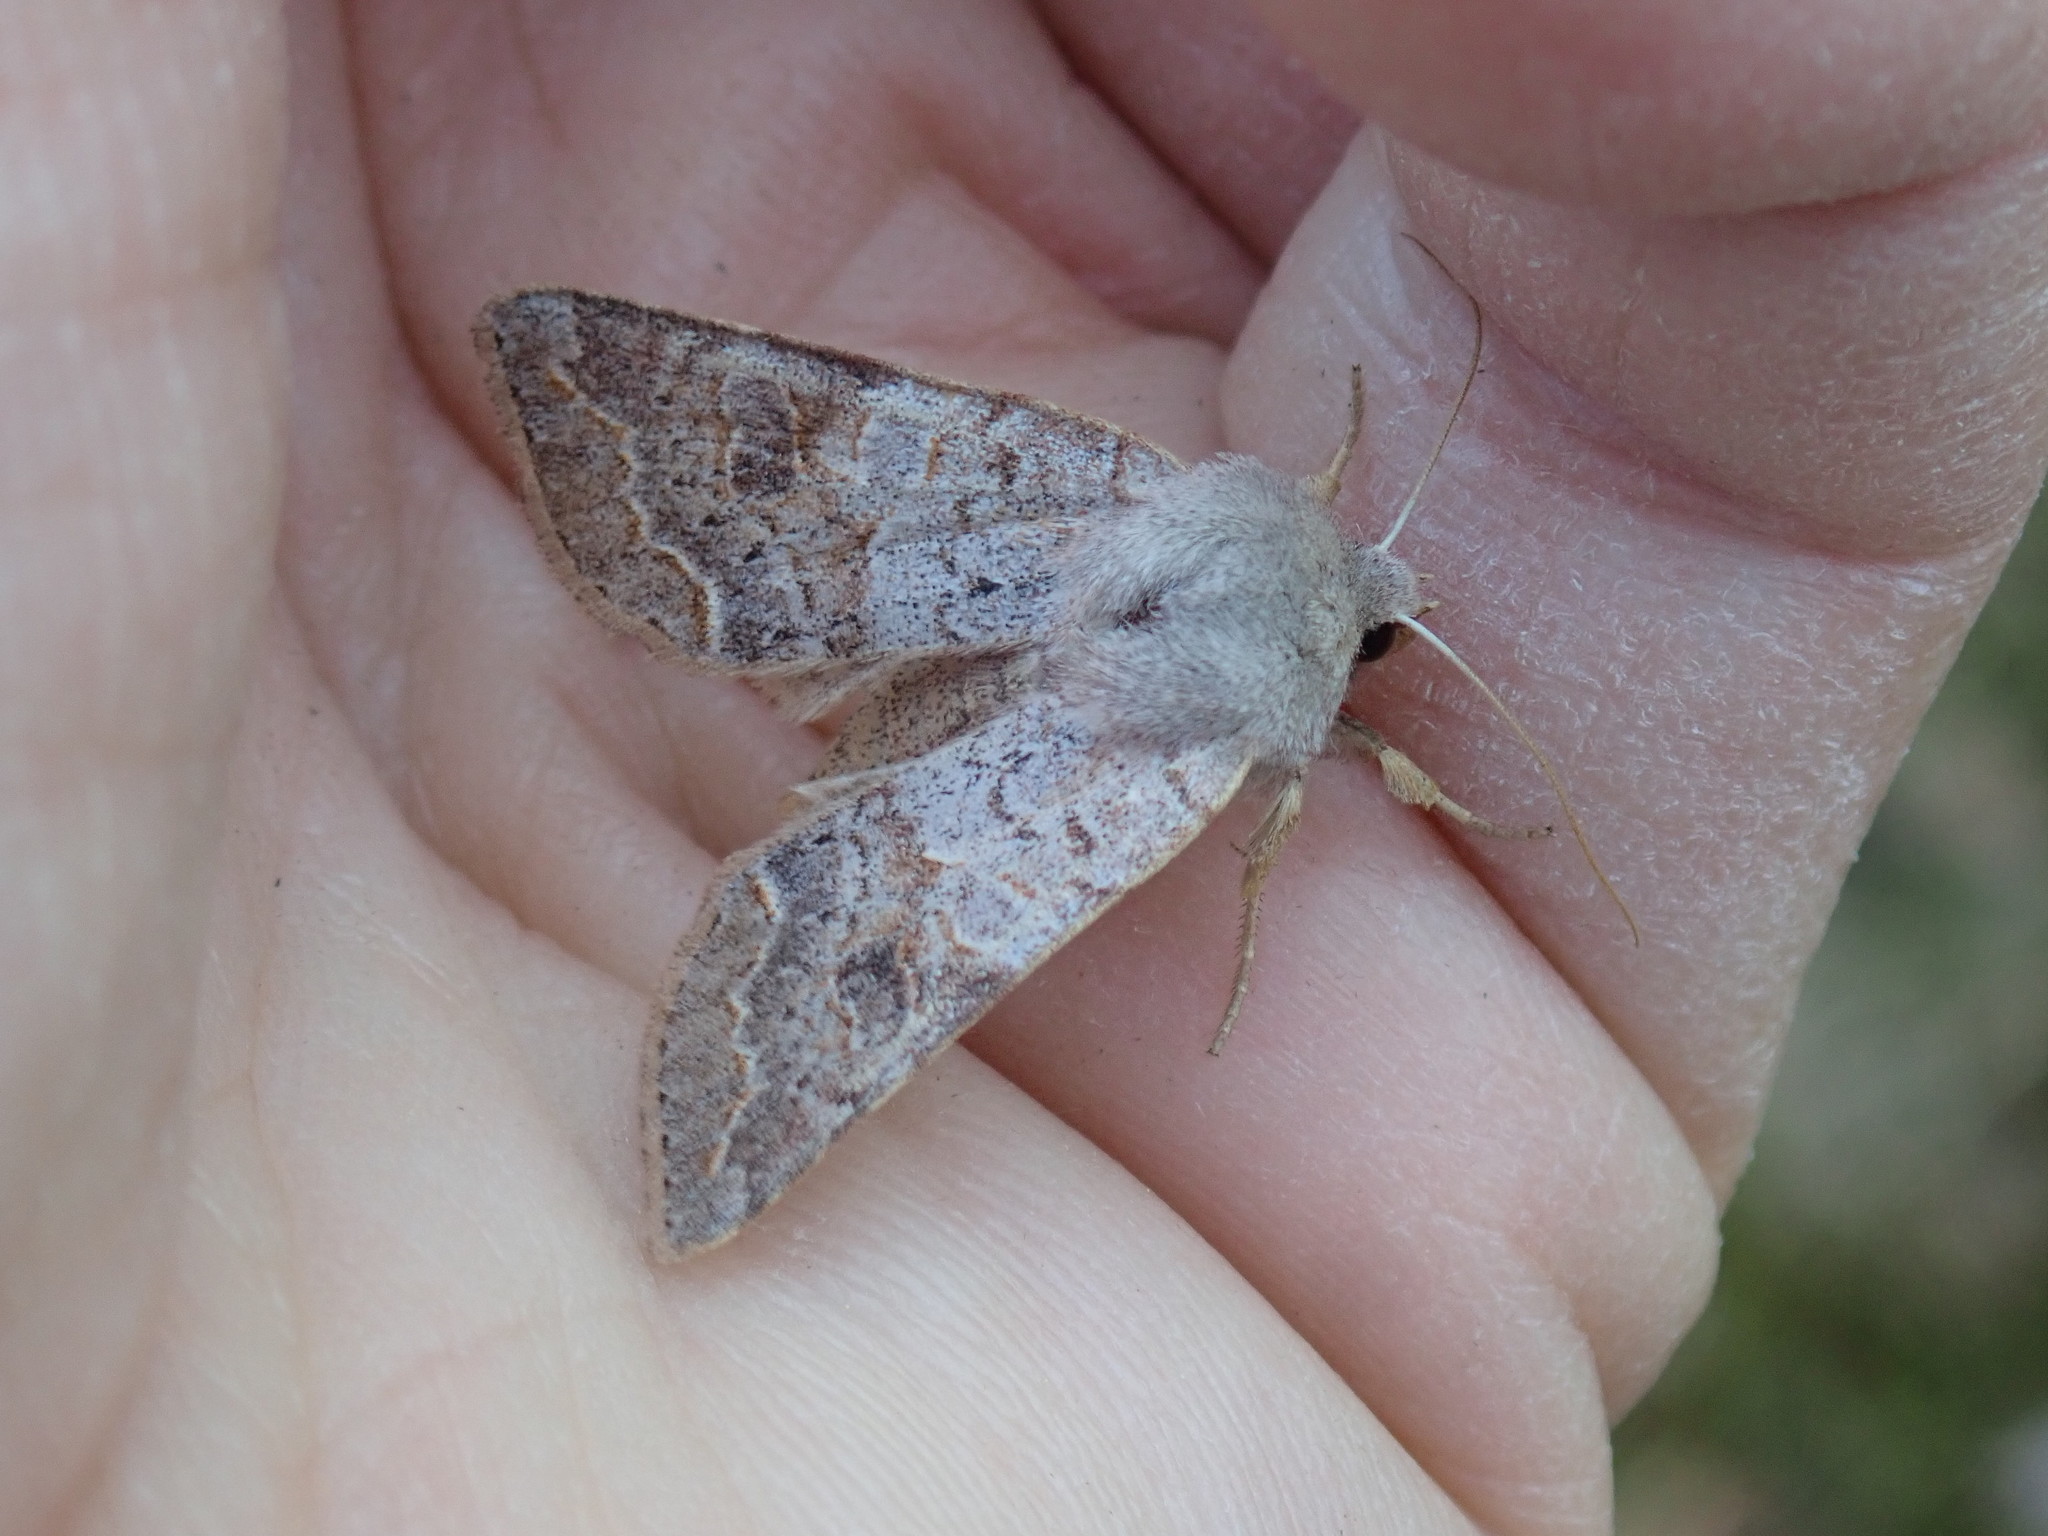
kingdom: Animalia
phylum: Arthropoda
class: Insecta
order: Lepidoptera
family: Noctuidae
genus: Orthosia
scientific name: Orthosia revicta
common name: Rusty whitesided caterpillar
